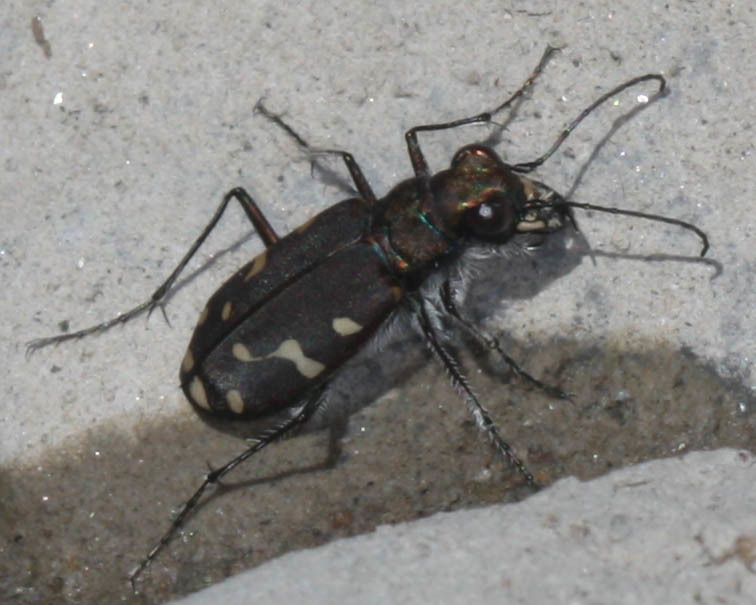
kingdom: Animalia
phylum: Arthropoda
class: Insecta
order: Coleoptera
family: Carabidae
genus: Cicindela
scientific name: Cicindela oregona
